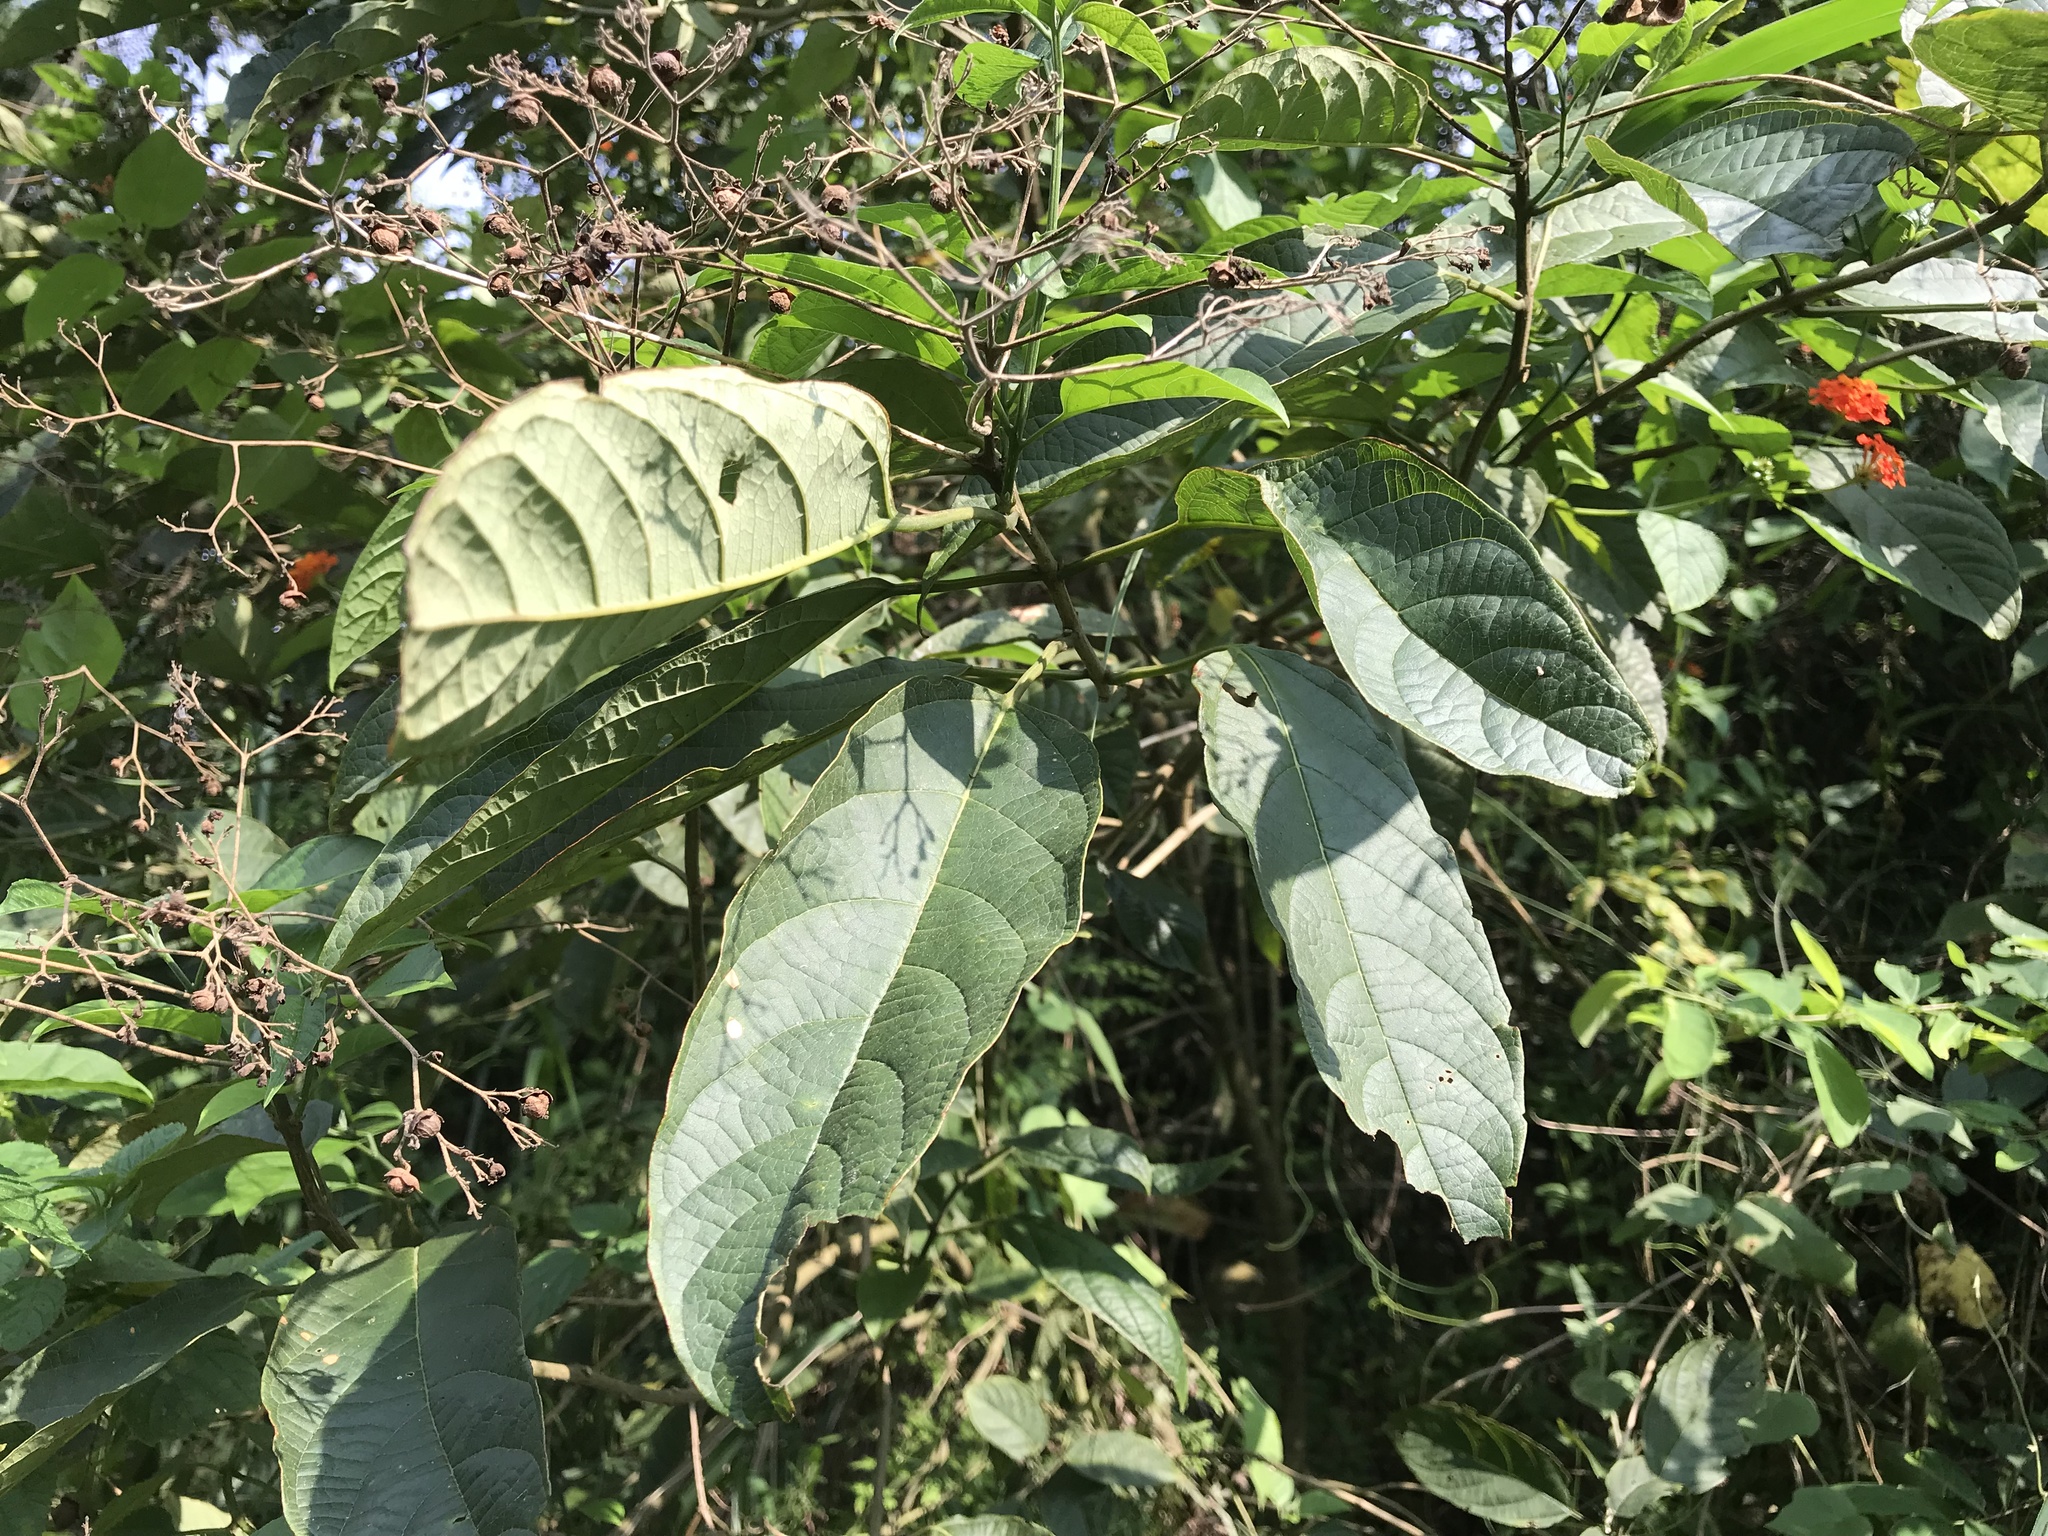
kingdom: Plantae
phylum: Tracheophyta
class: Magnoliopsida
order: Lamiales
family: Lamiaceae
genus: Clerodendrum
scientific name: Clerodendrum cyrtophyllum
